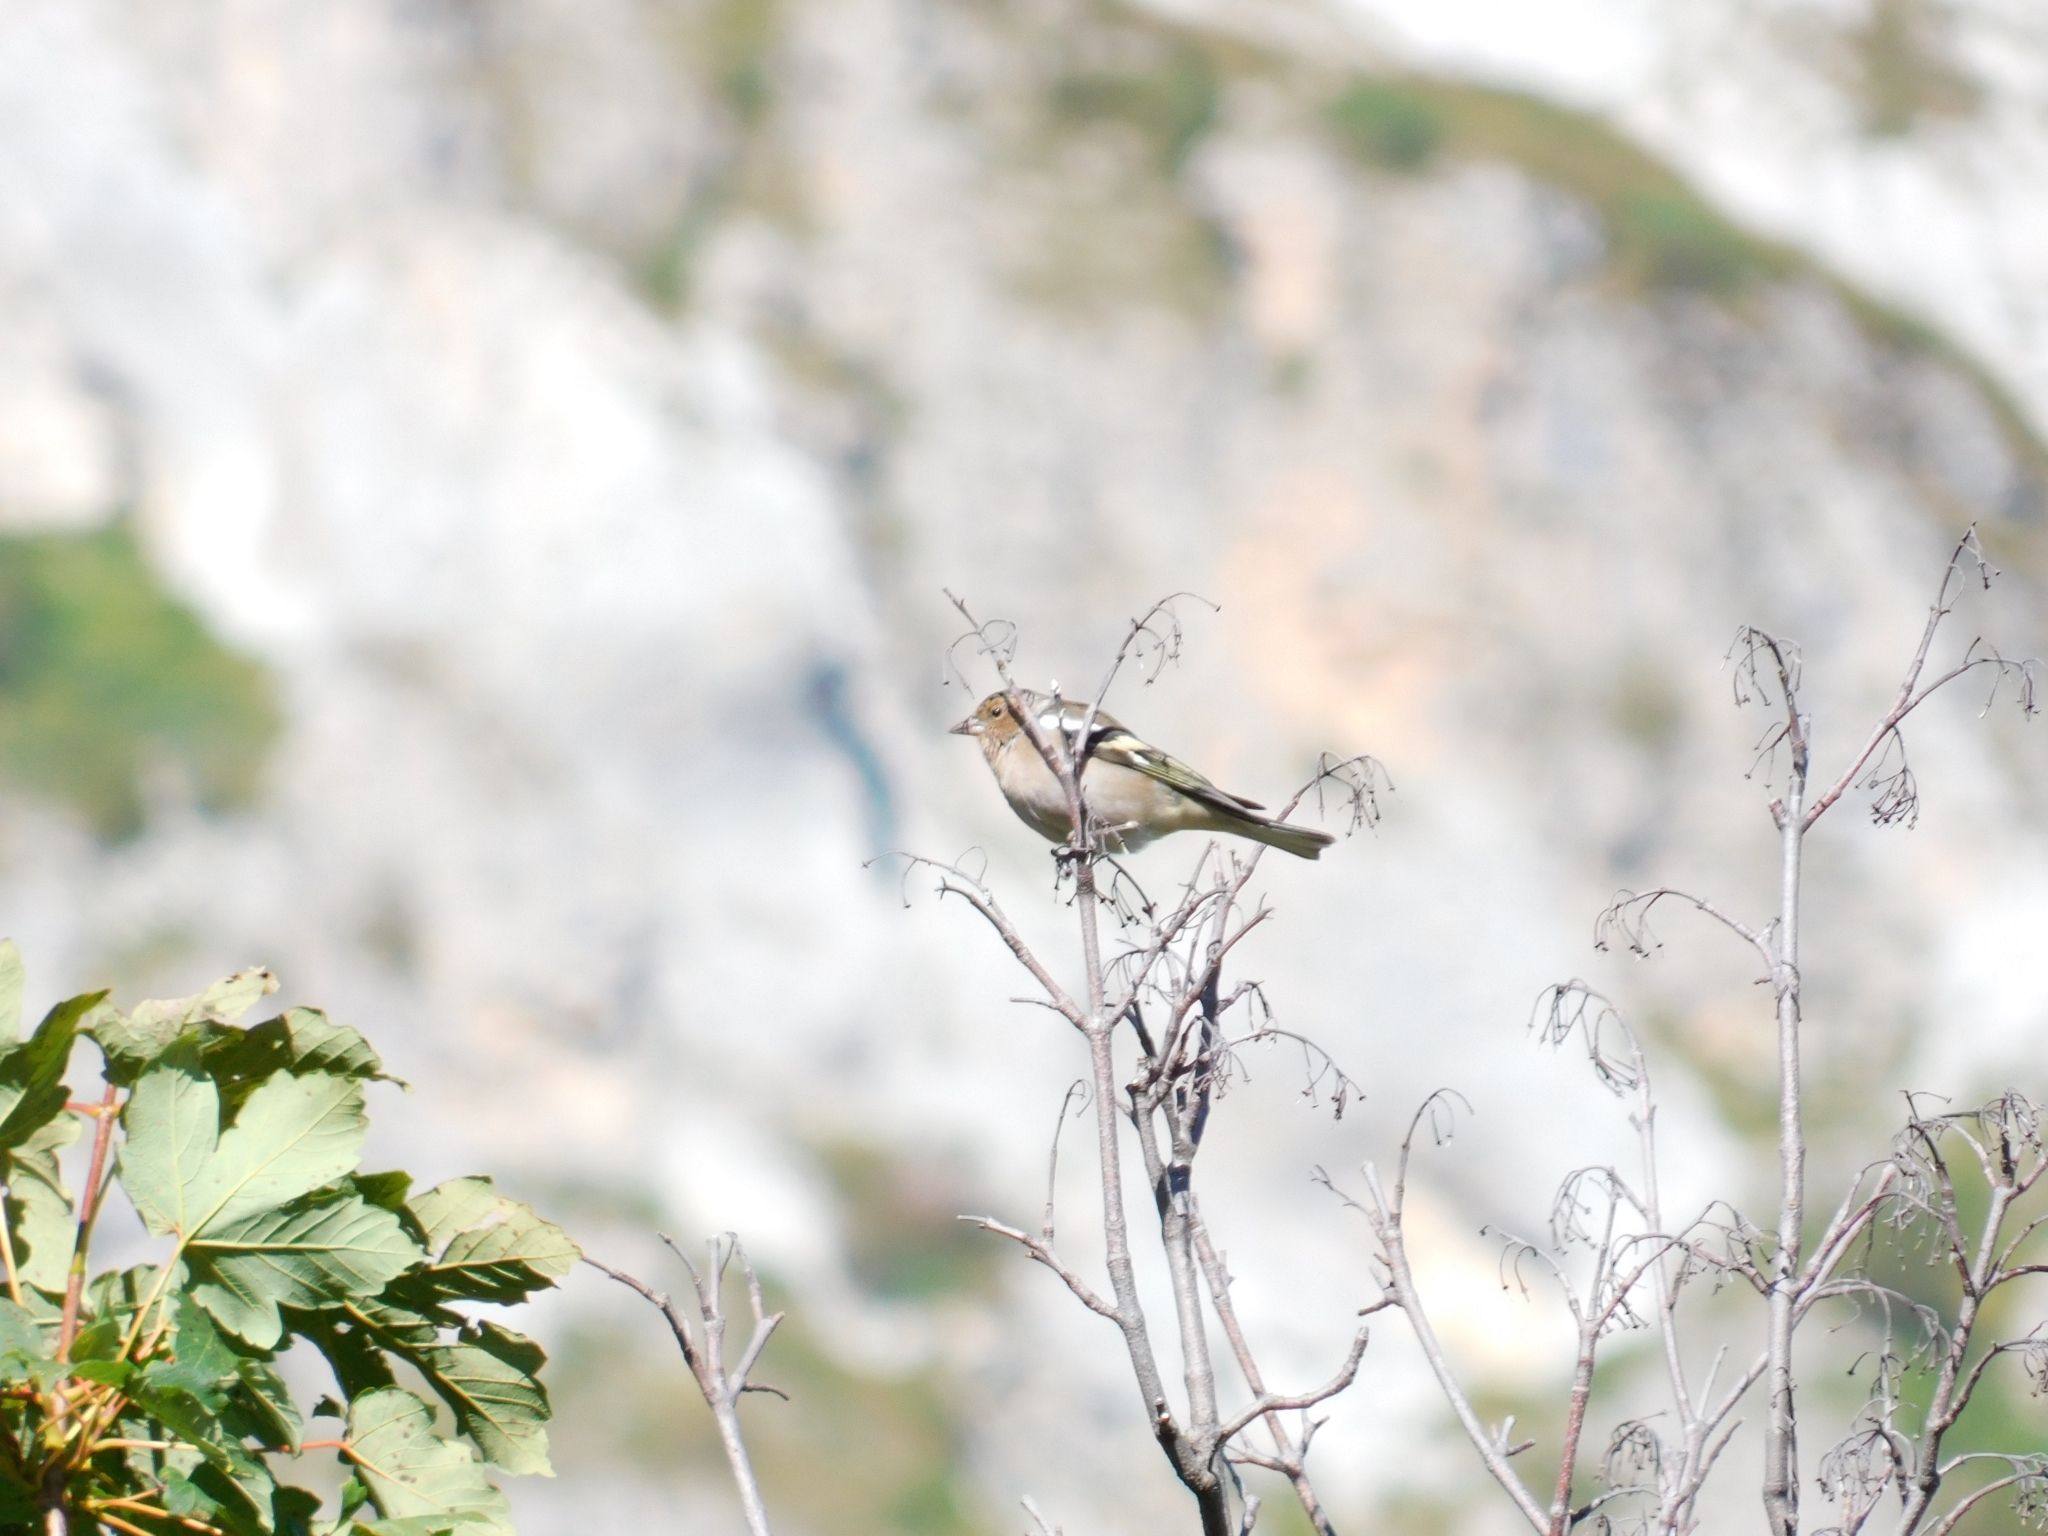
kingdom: Animalia
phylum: Chordata
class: Aves
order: Passeriformes
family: Fringillidae
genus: Fringilla
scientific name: Fringilla coelebs
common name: Common chaffinch
